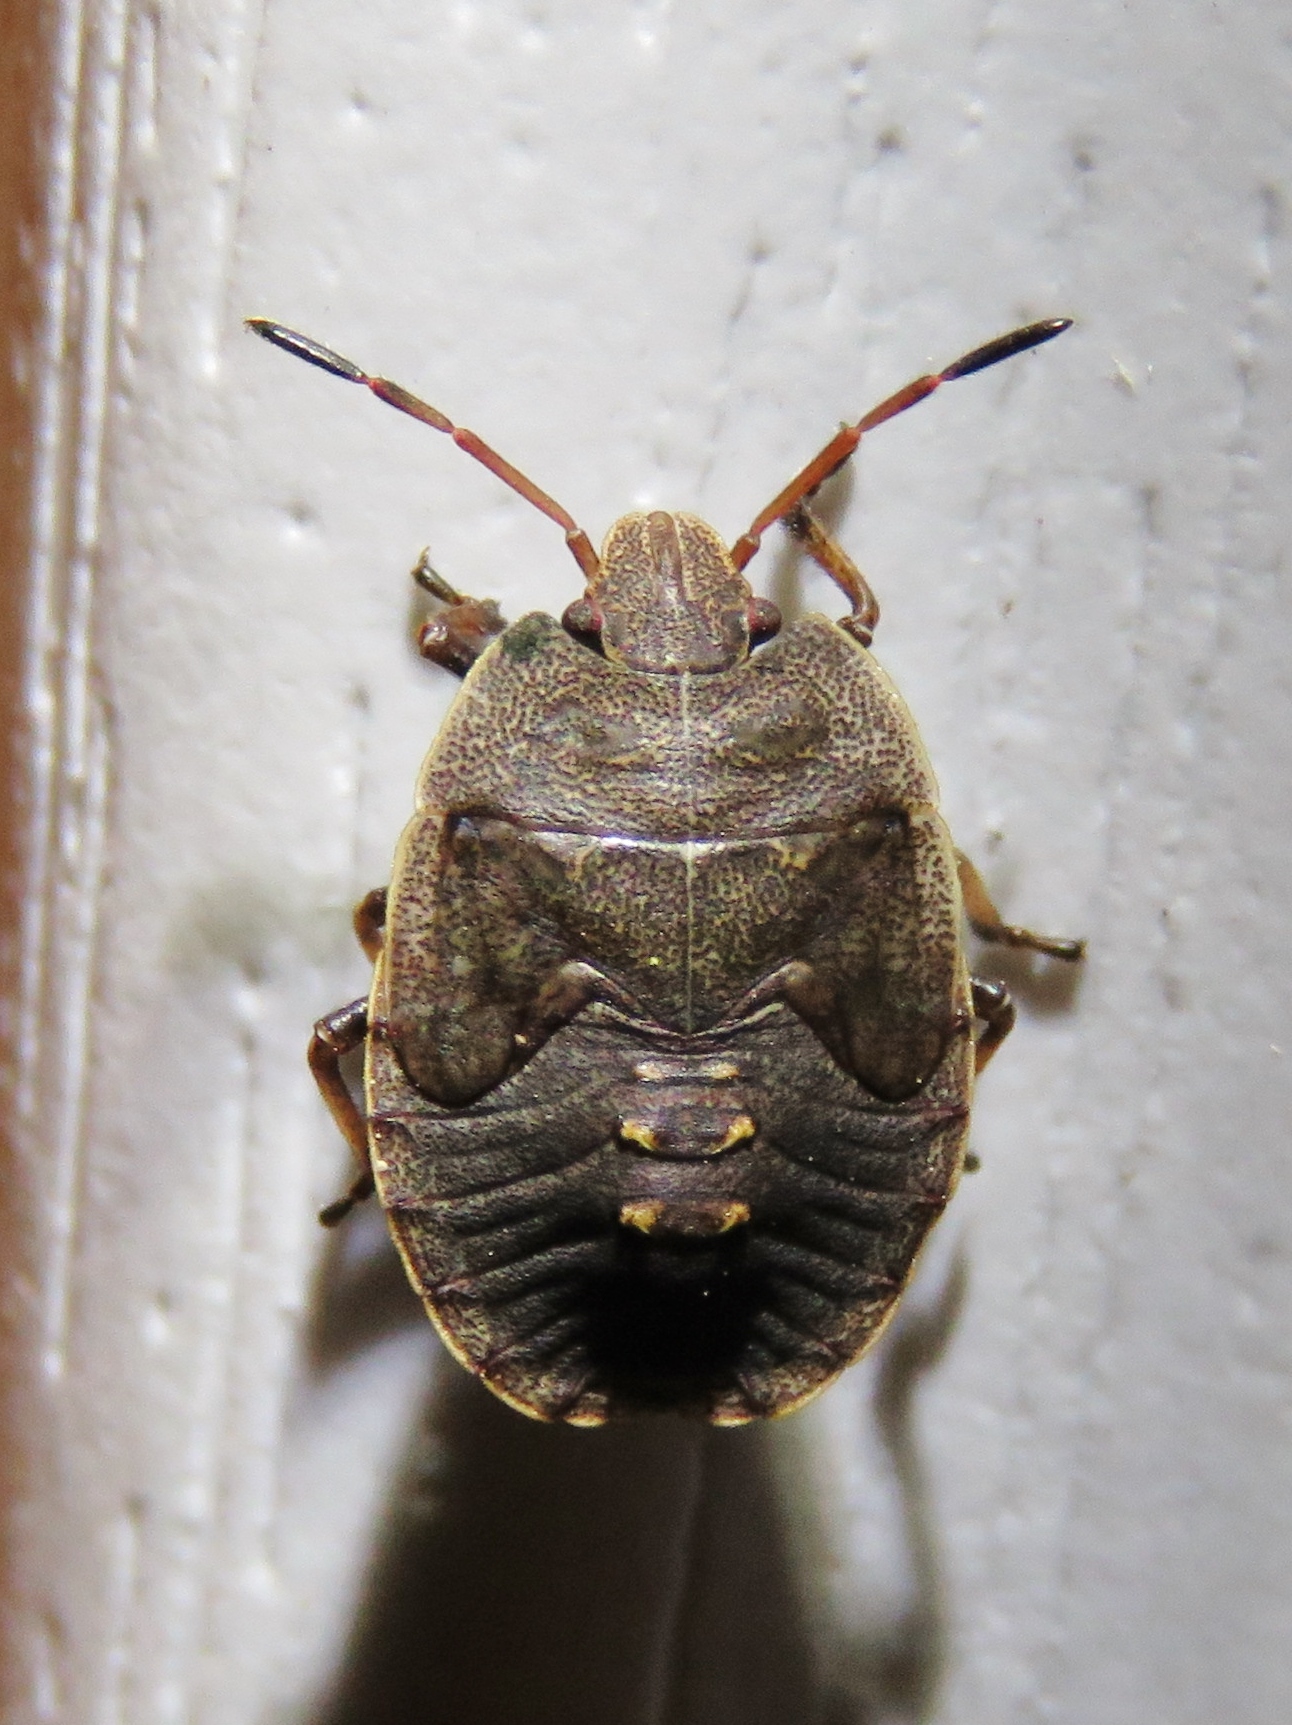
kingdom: Animalia
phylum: Arthropoda
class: Insecta
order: Hemiptera
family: Pentatomidae
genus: Menecles
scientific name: Menecles insertus
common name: Elf shoe stink bug
